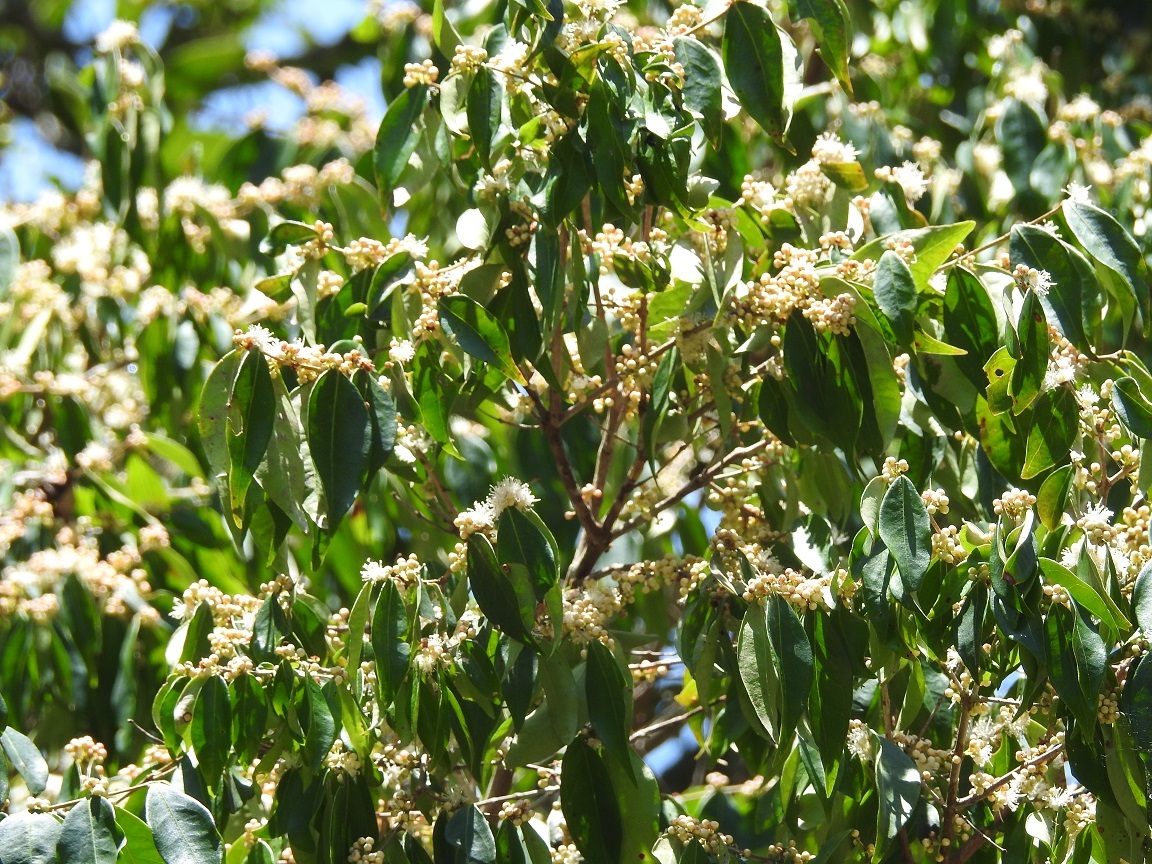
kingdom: Plantae
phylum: Tracheophyta
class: Magnoliopsida
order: Myrtales
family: Myrtaceae
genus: Eugenia
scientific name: Eugenia acapulcensis
